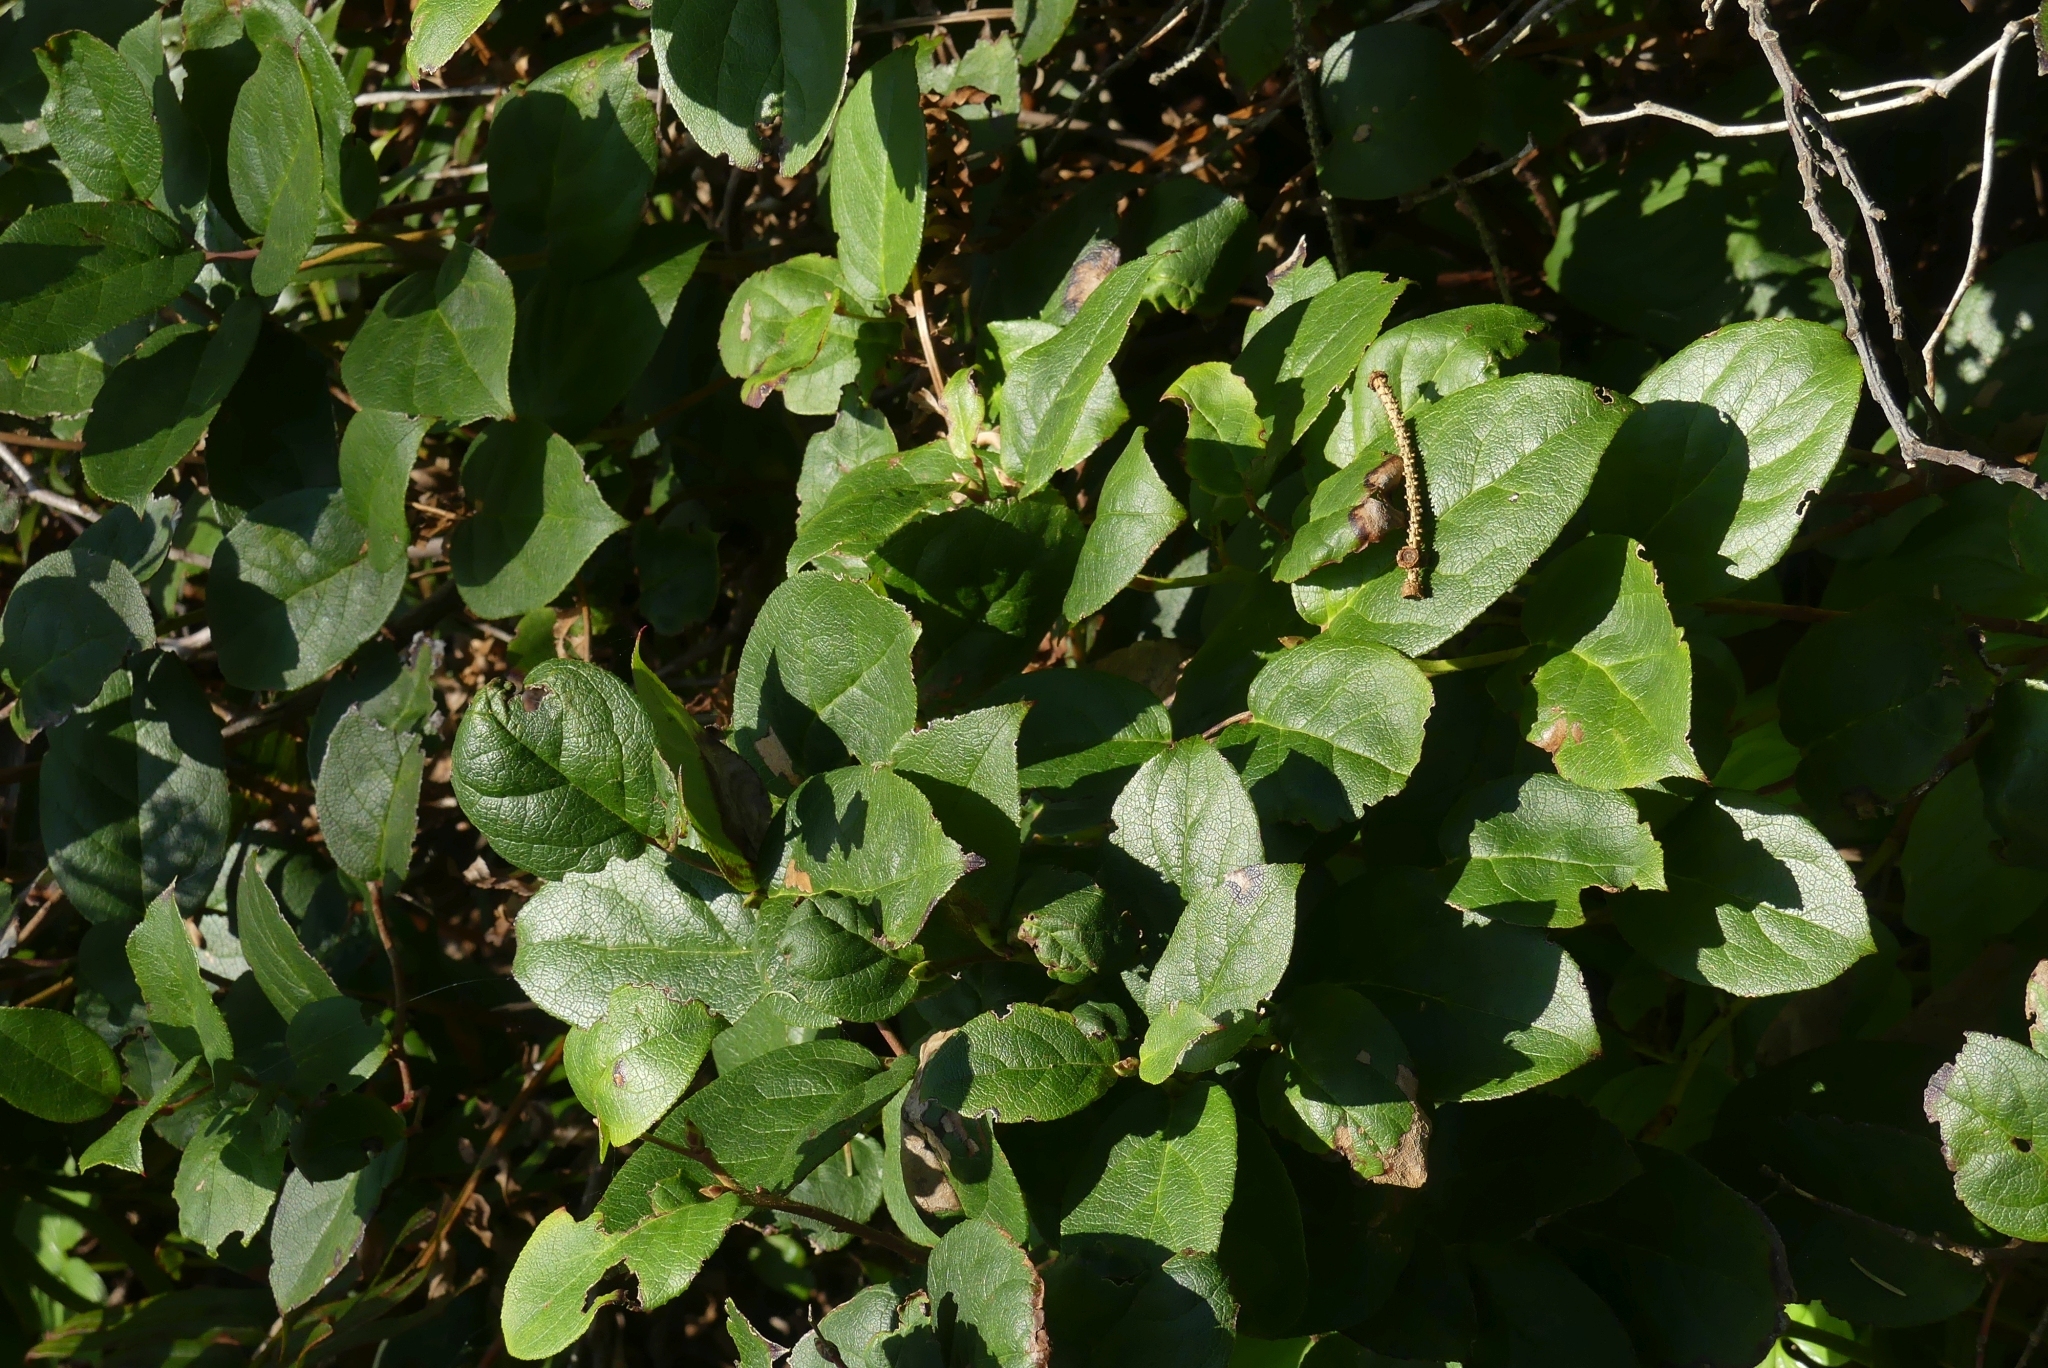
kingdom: Plantae
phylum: Tracheophyta
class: Magnoliopsida
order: Ericales
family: Ericaceae
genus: Gaultheria
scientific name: Gaultheria shallon
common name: Shallon
